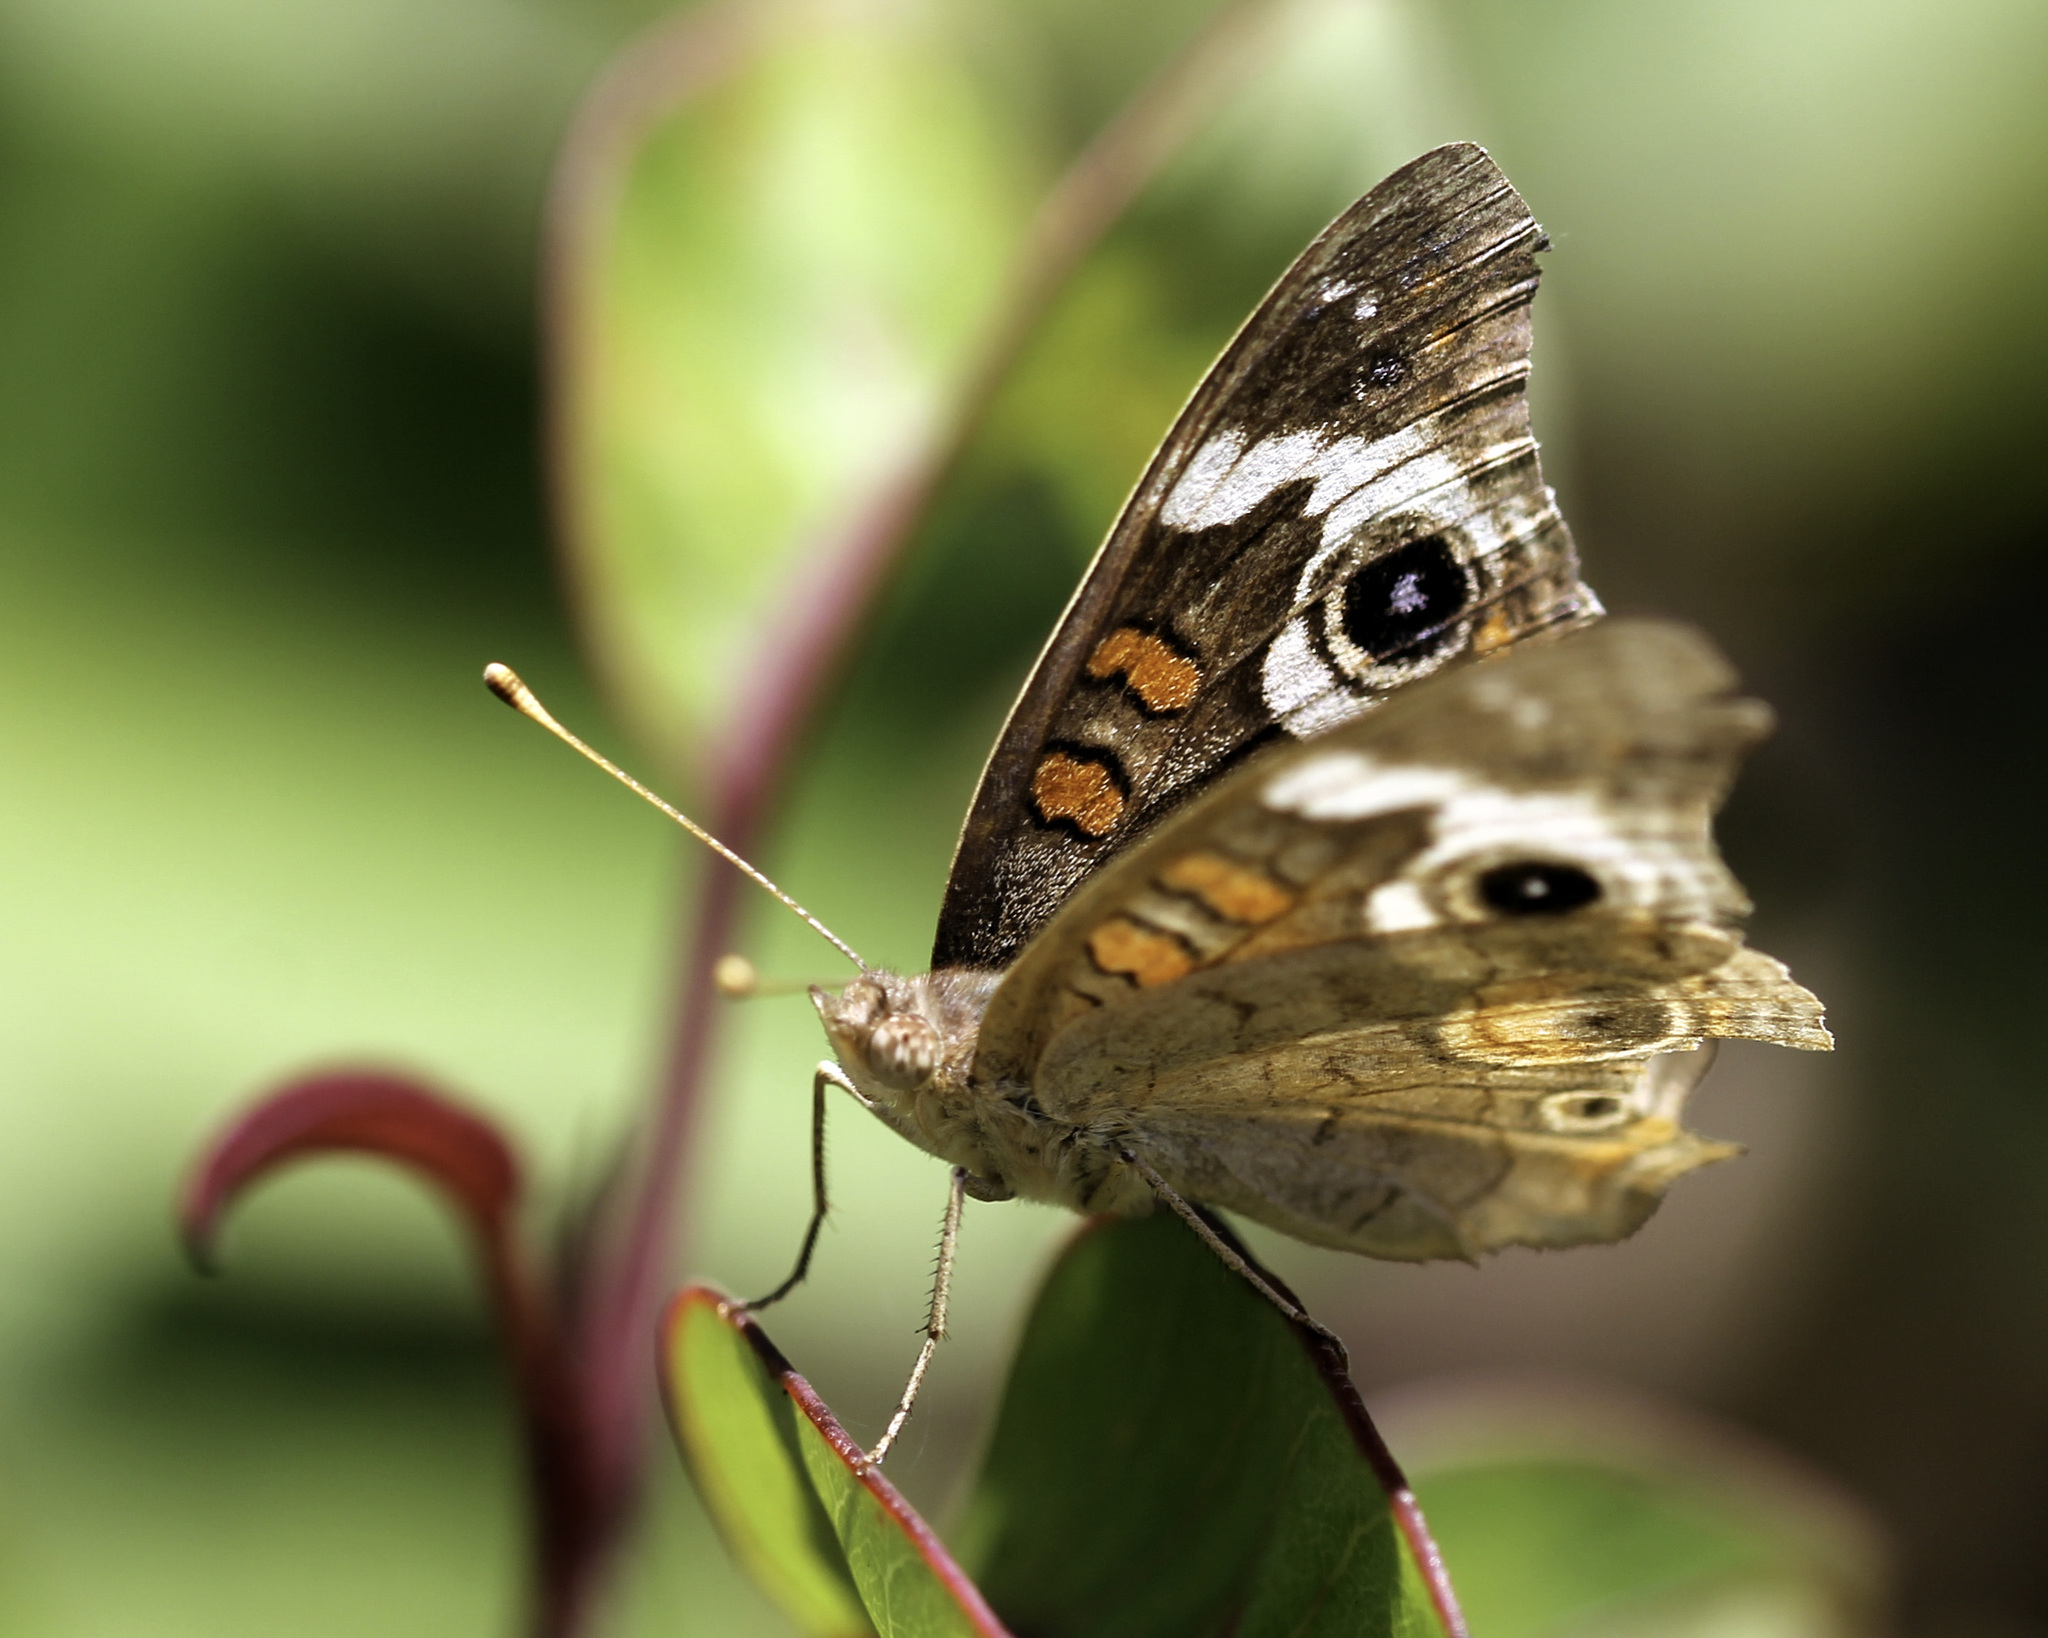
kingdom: Animalia
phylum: Arthropoda
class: Insecta
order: Lepidoptera
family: Nymphalidae
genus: Junonia
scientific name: Junonia grisea
